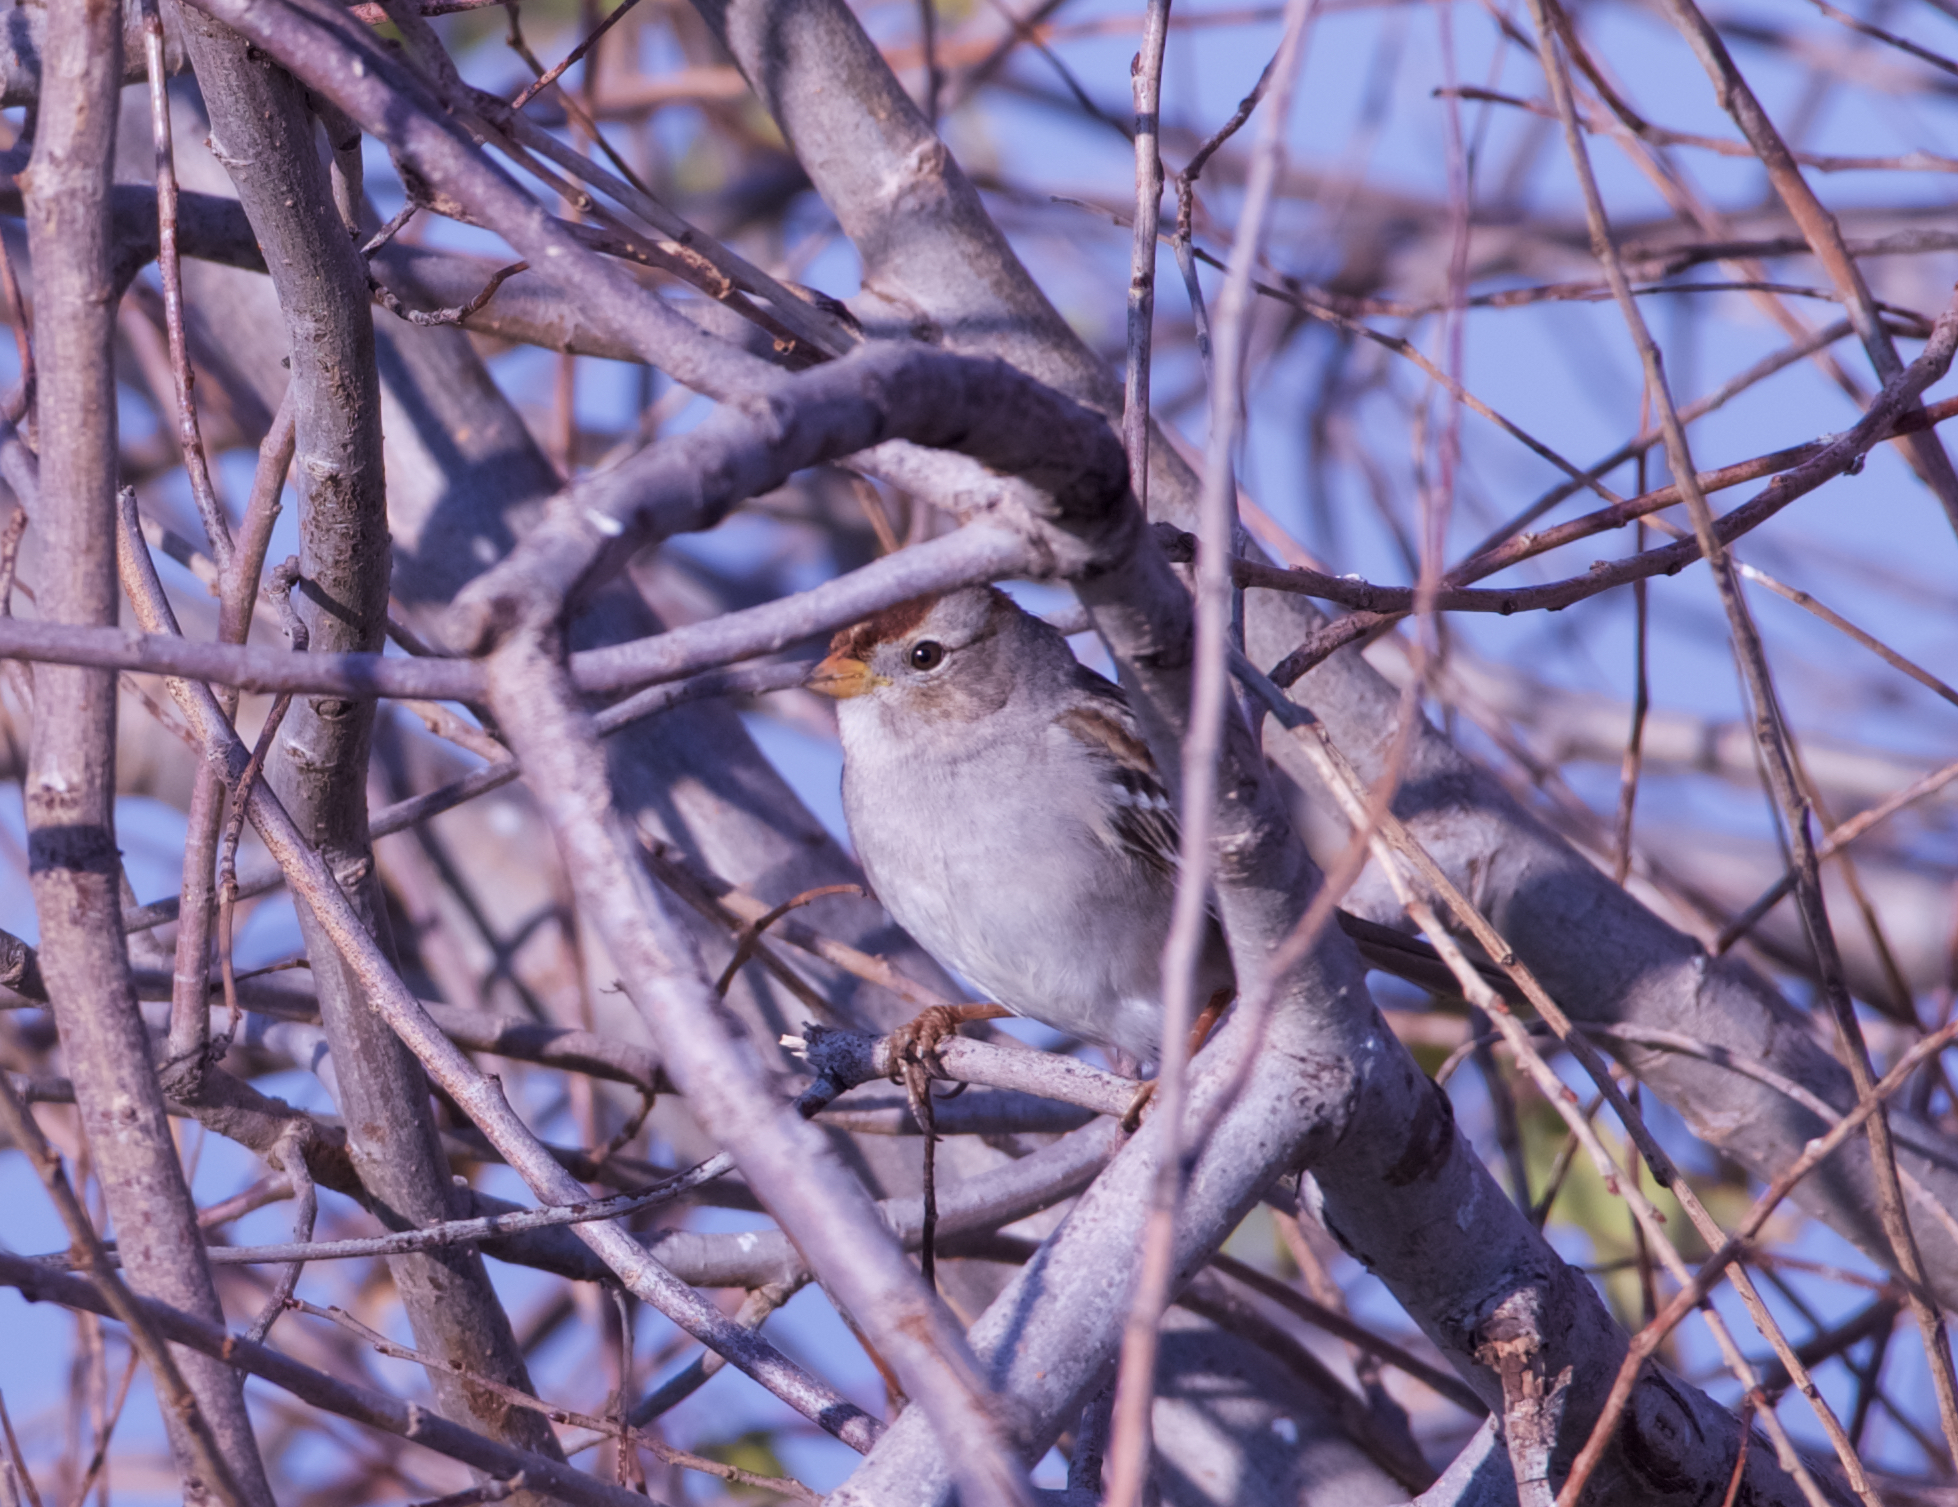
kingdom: Animalia
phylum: Chordata
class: Aves
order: Passeriformes
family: Passerellidae
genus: Zonotrichia
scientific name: Zonotrichia leucophrys
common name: White-crowned sparrow
